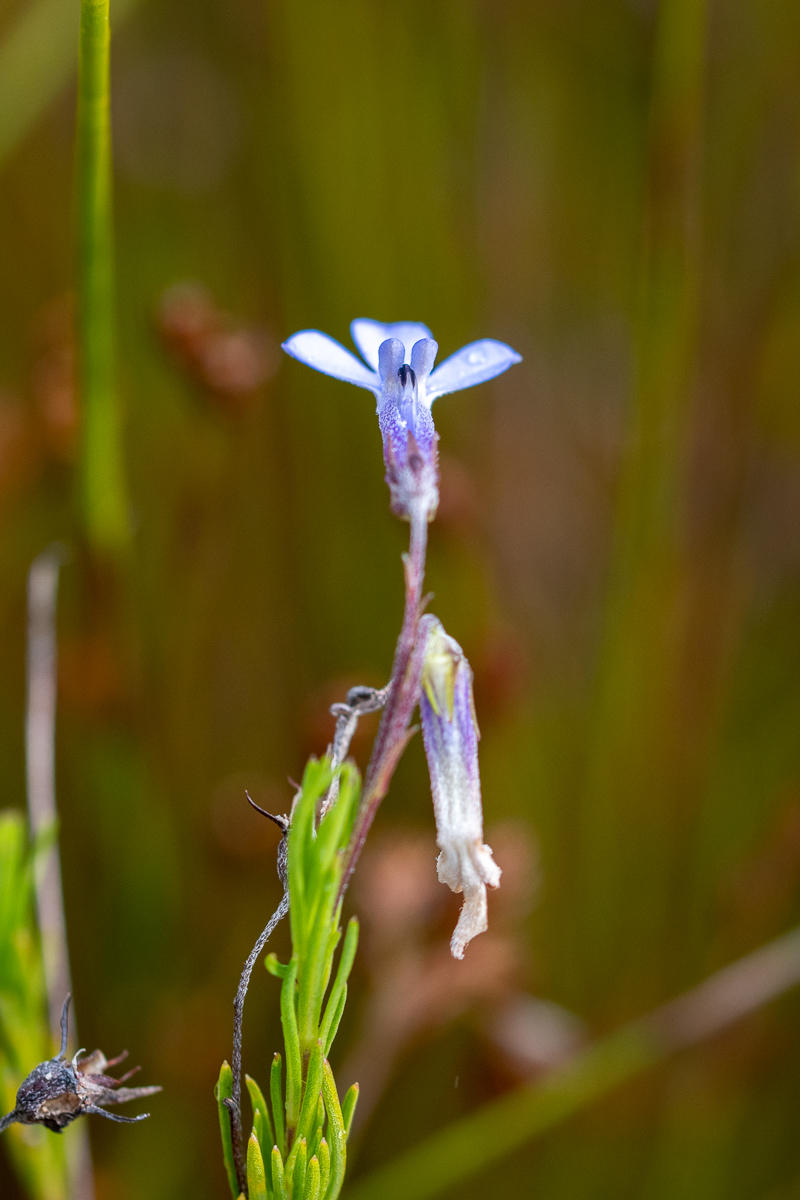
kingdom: Plantae
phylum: Tracheophyta
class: Magnoliopsida
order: Asterales
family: Campanulaceae
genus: Lobelia
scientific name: Lobelia pinifolia
